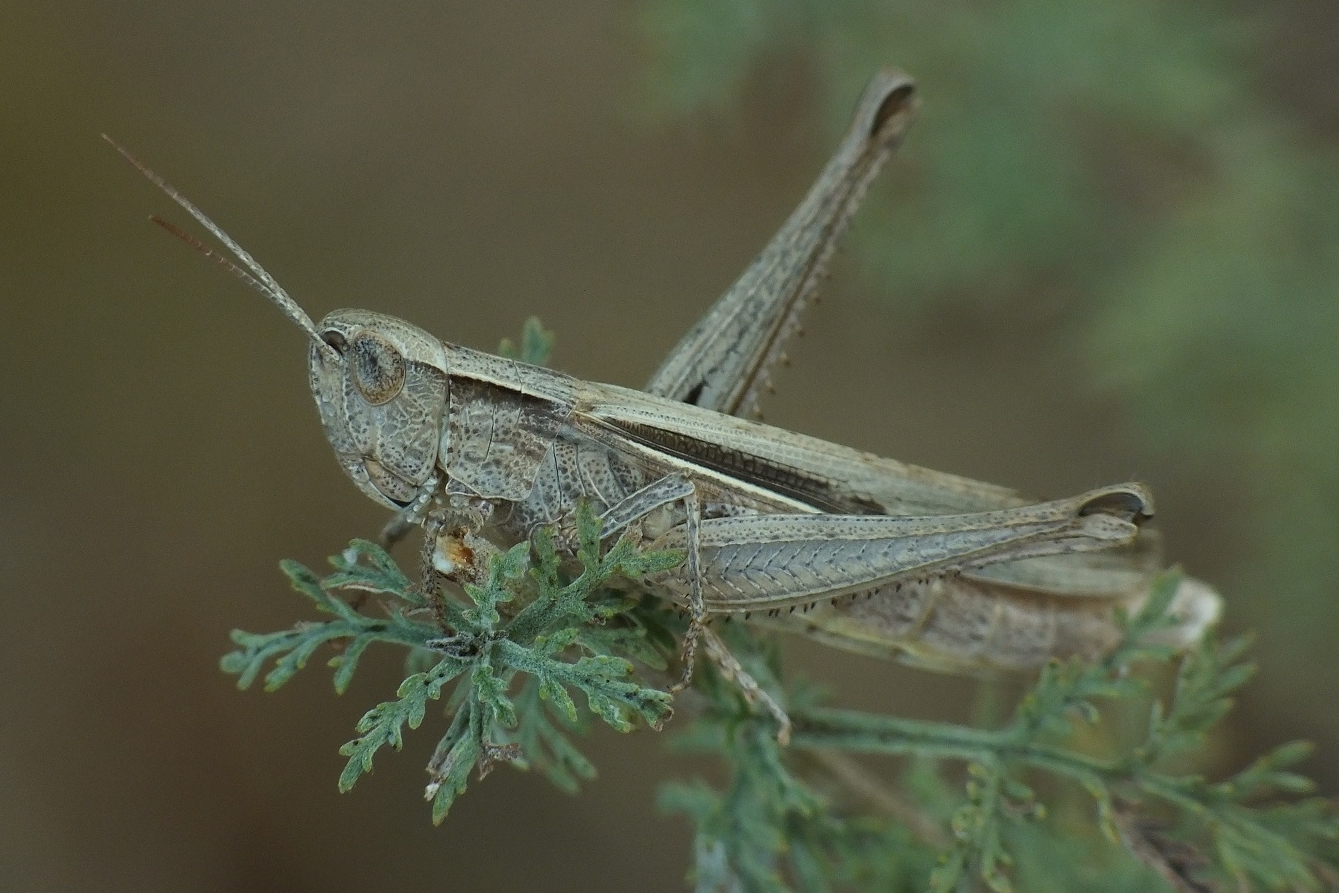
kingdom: Animalia
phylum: Arthropoda
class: Insecta
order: Orthoptera
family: Acrididae
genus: Chorthippus
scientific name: Chorthippus dichrous
